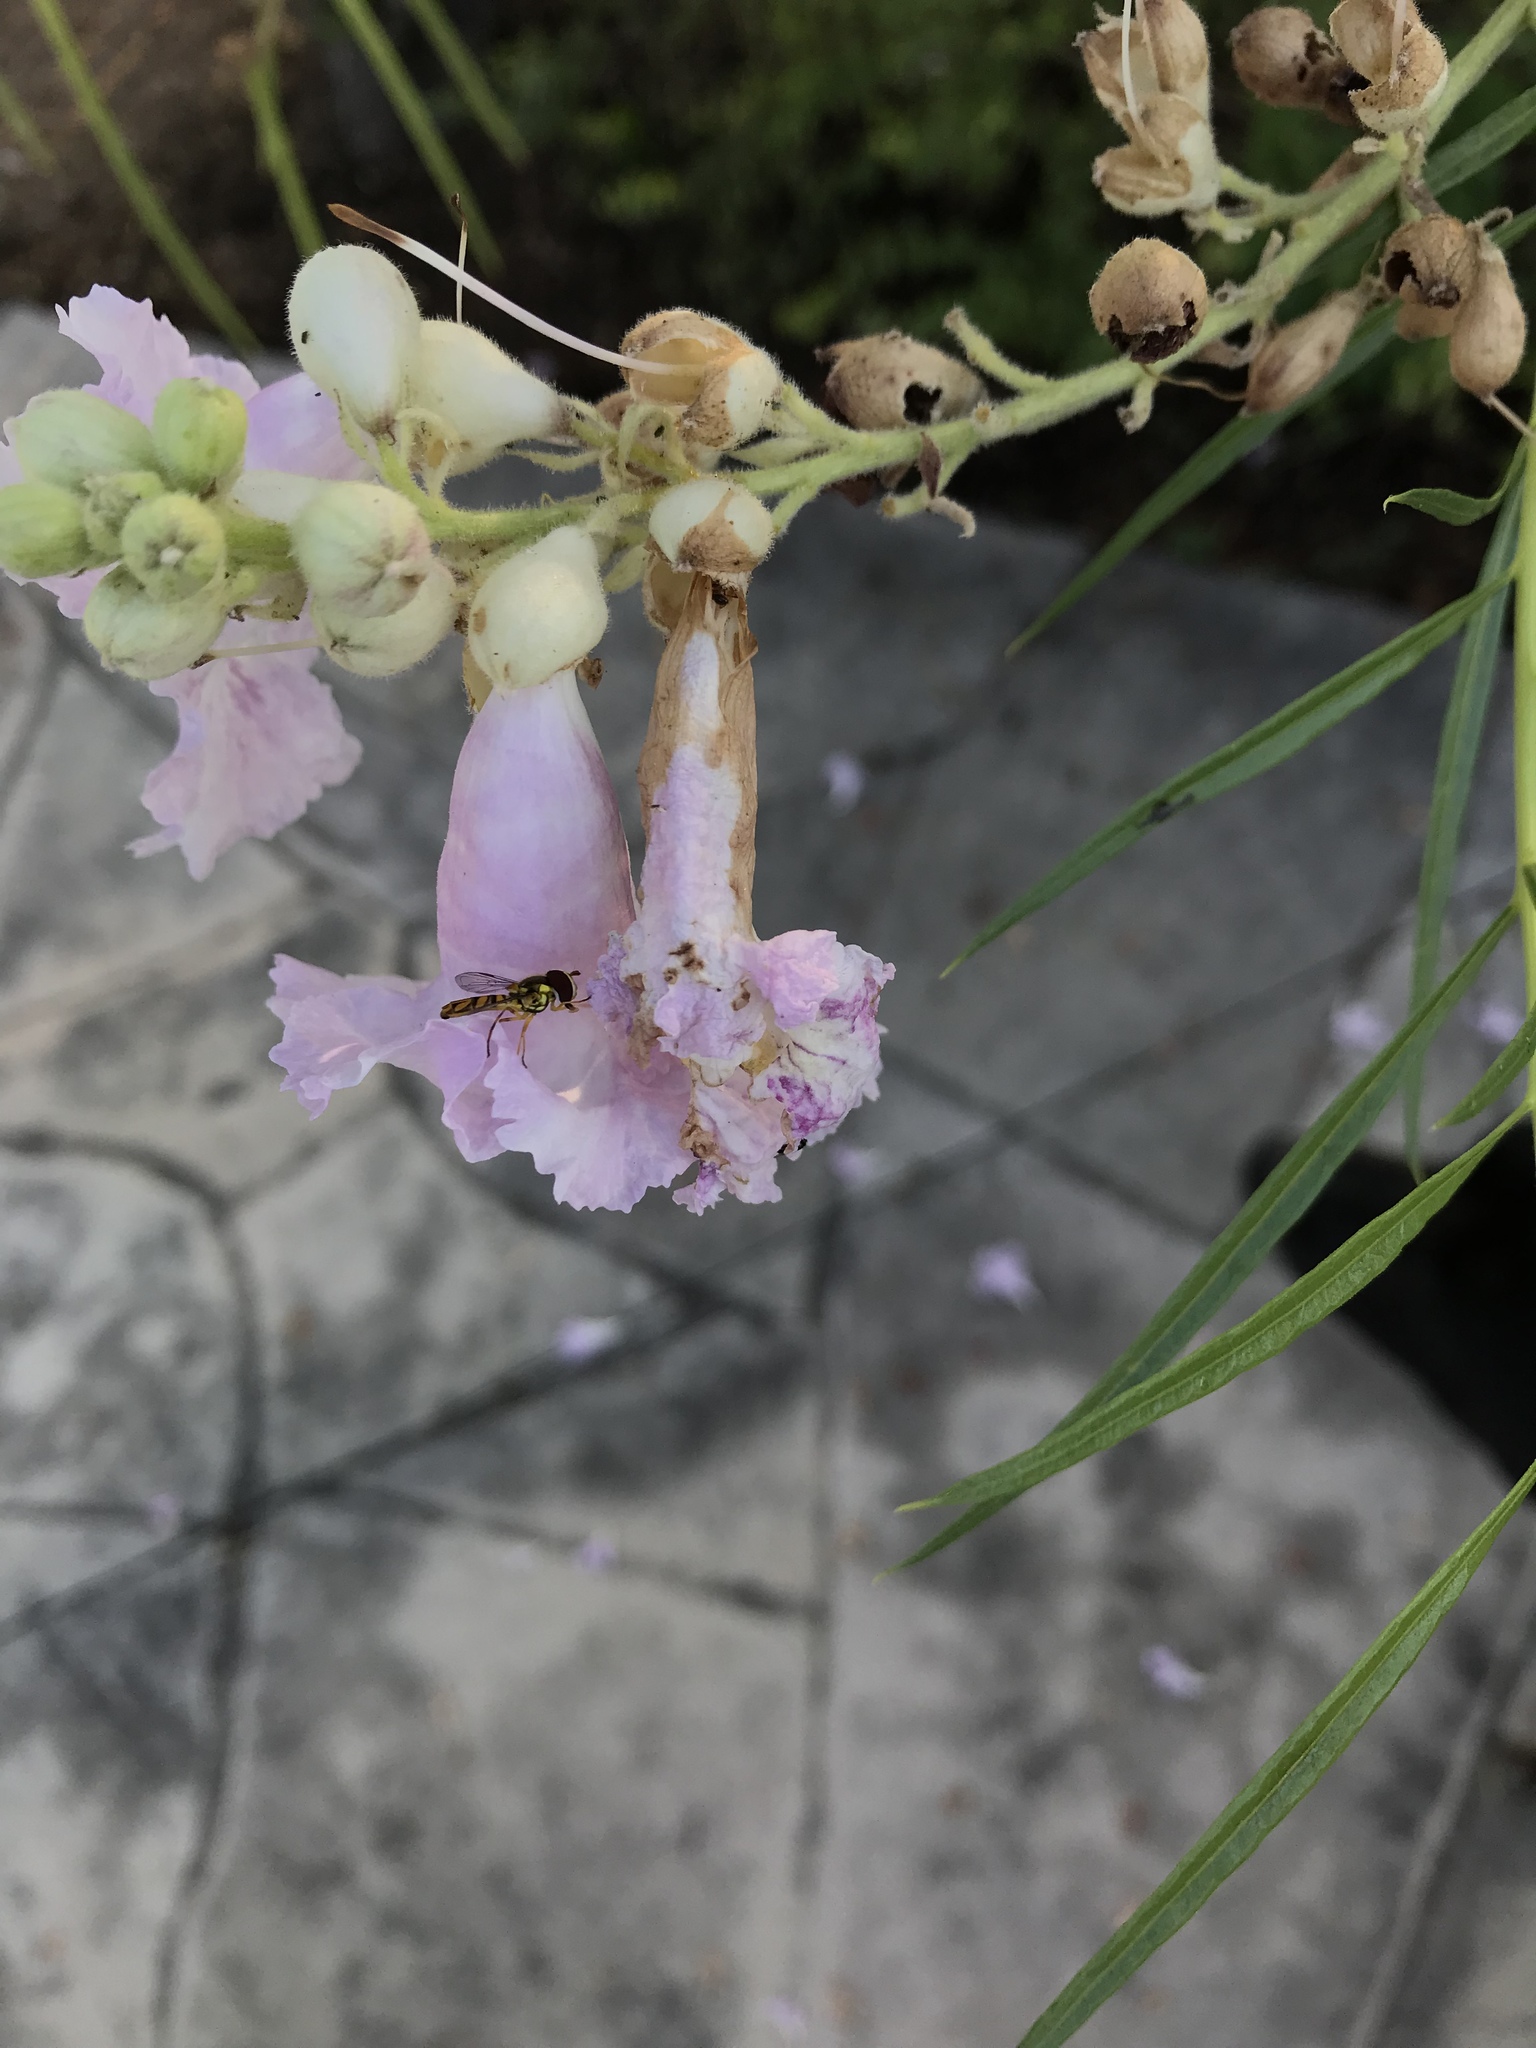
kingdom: Animalia
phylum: Arthropoda
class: Insecta
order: Diptera
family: Syrphidae
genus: Allograpta
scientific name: Allograpta obliqua
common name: Common oblique syrphid
